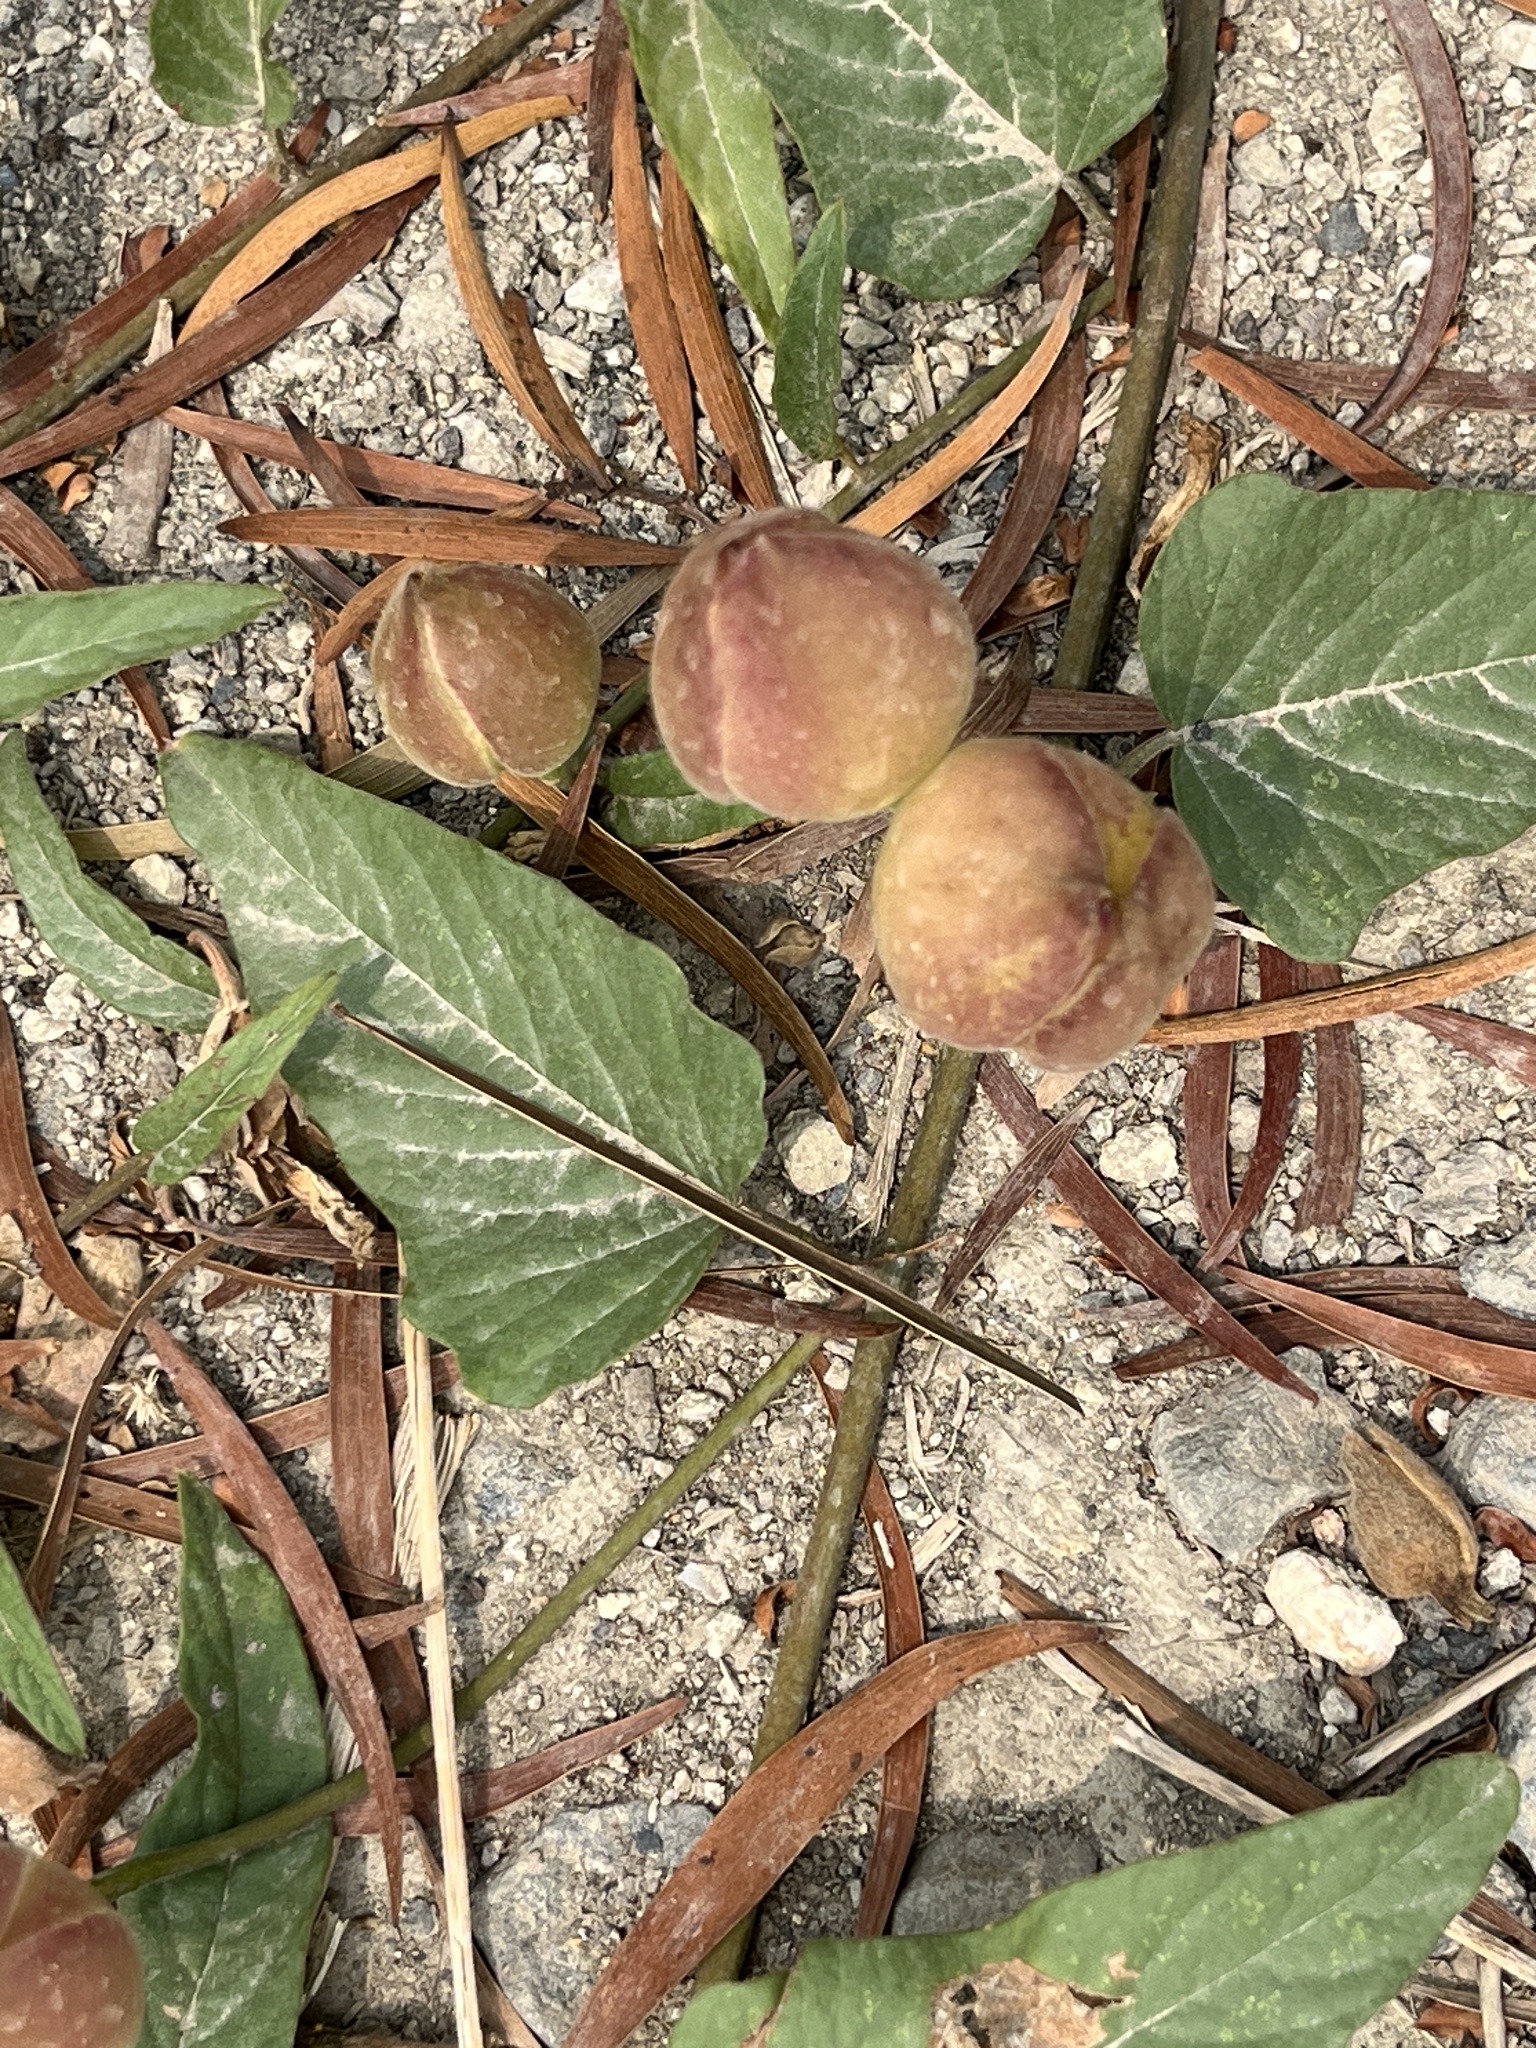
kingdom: Plantae
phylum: Tracheophyta
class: Magnoliopsida
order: Solanales
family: Convolvulaceae
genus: Operculina
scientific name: Operculina turpethum
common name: Transparent wood-rose
